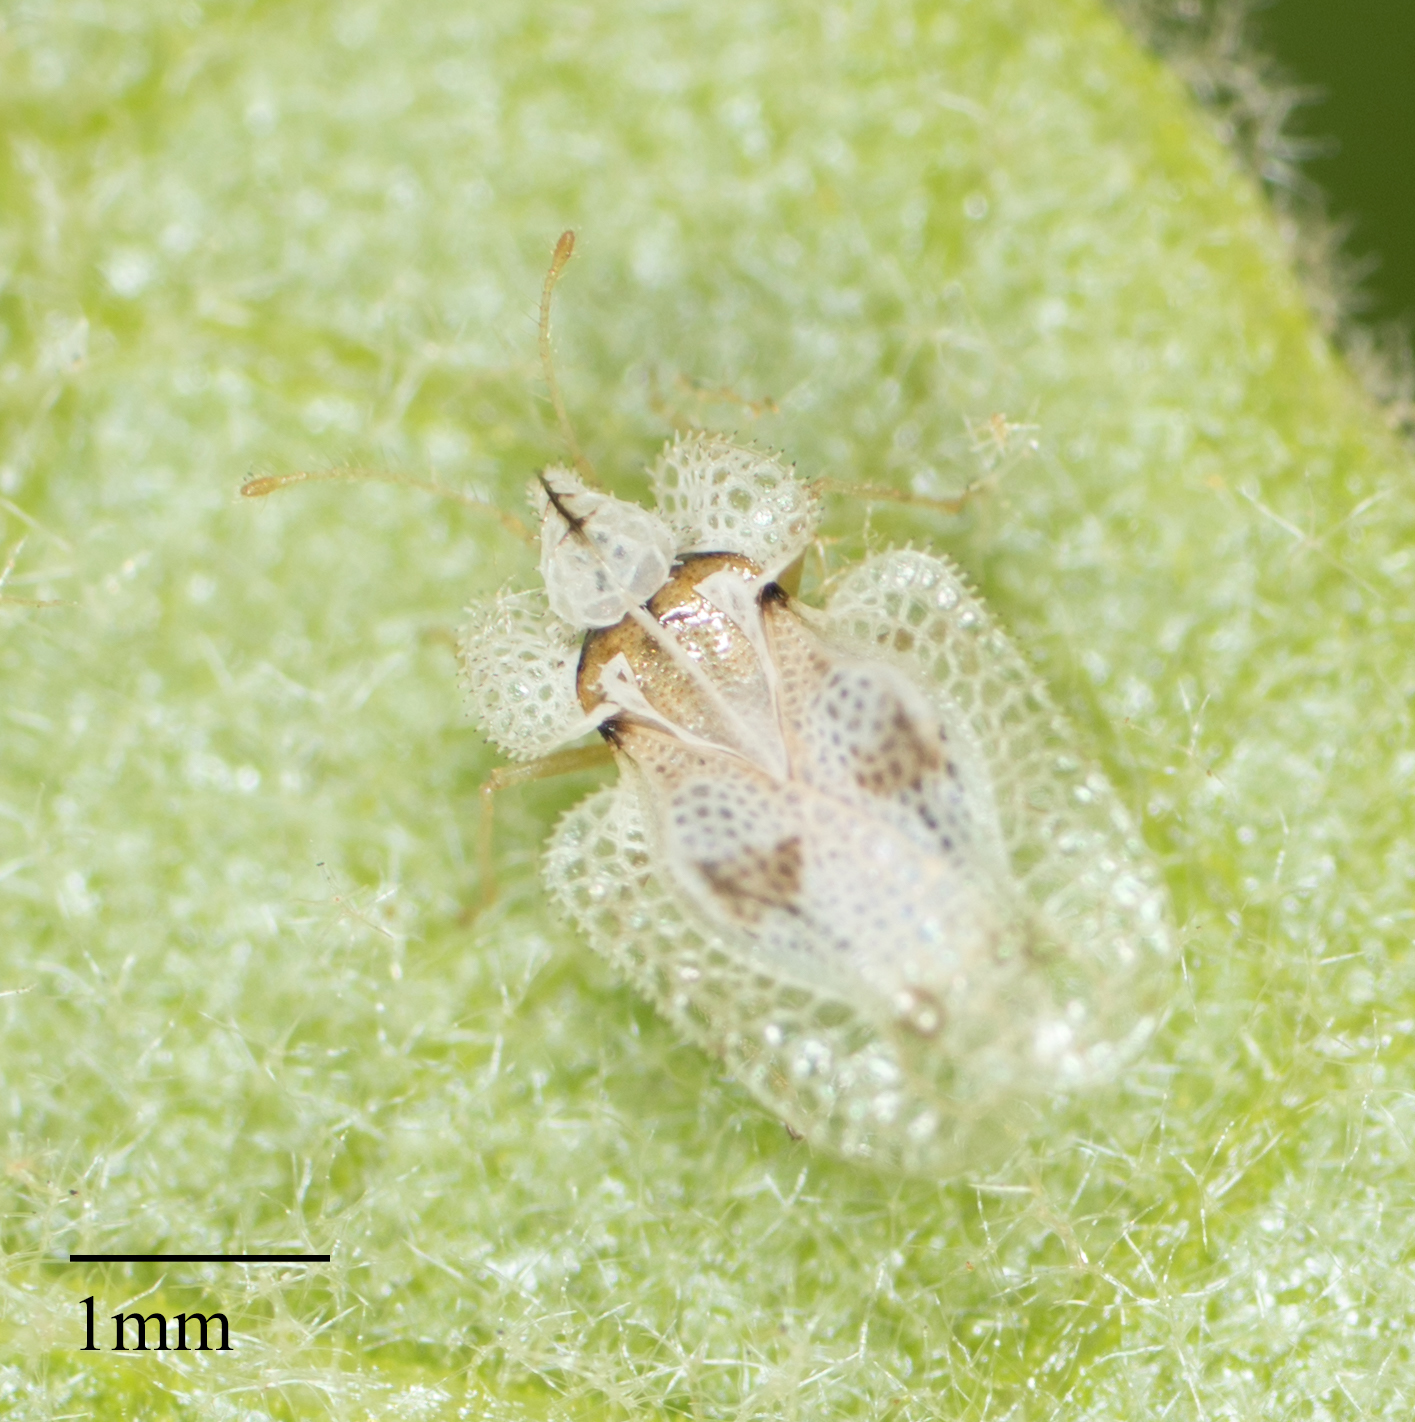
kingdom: Animalia
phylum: Arthropoda
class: Insecta
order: Hemiptera
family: Tingidae
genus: Corythucha
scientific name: Corythucha confraterna
